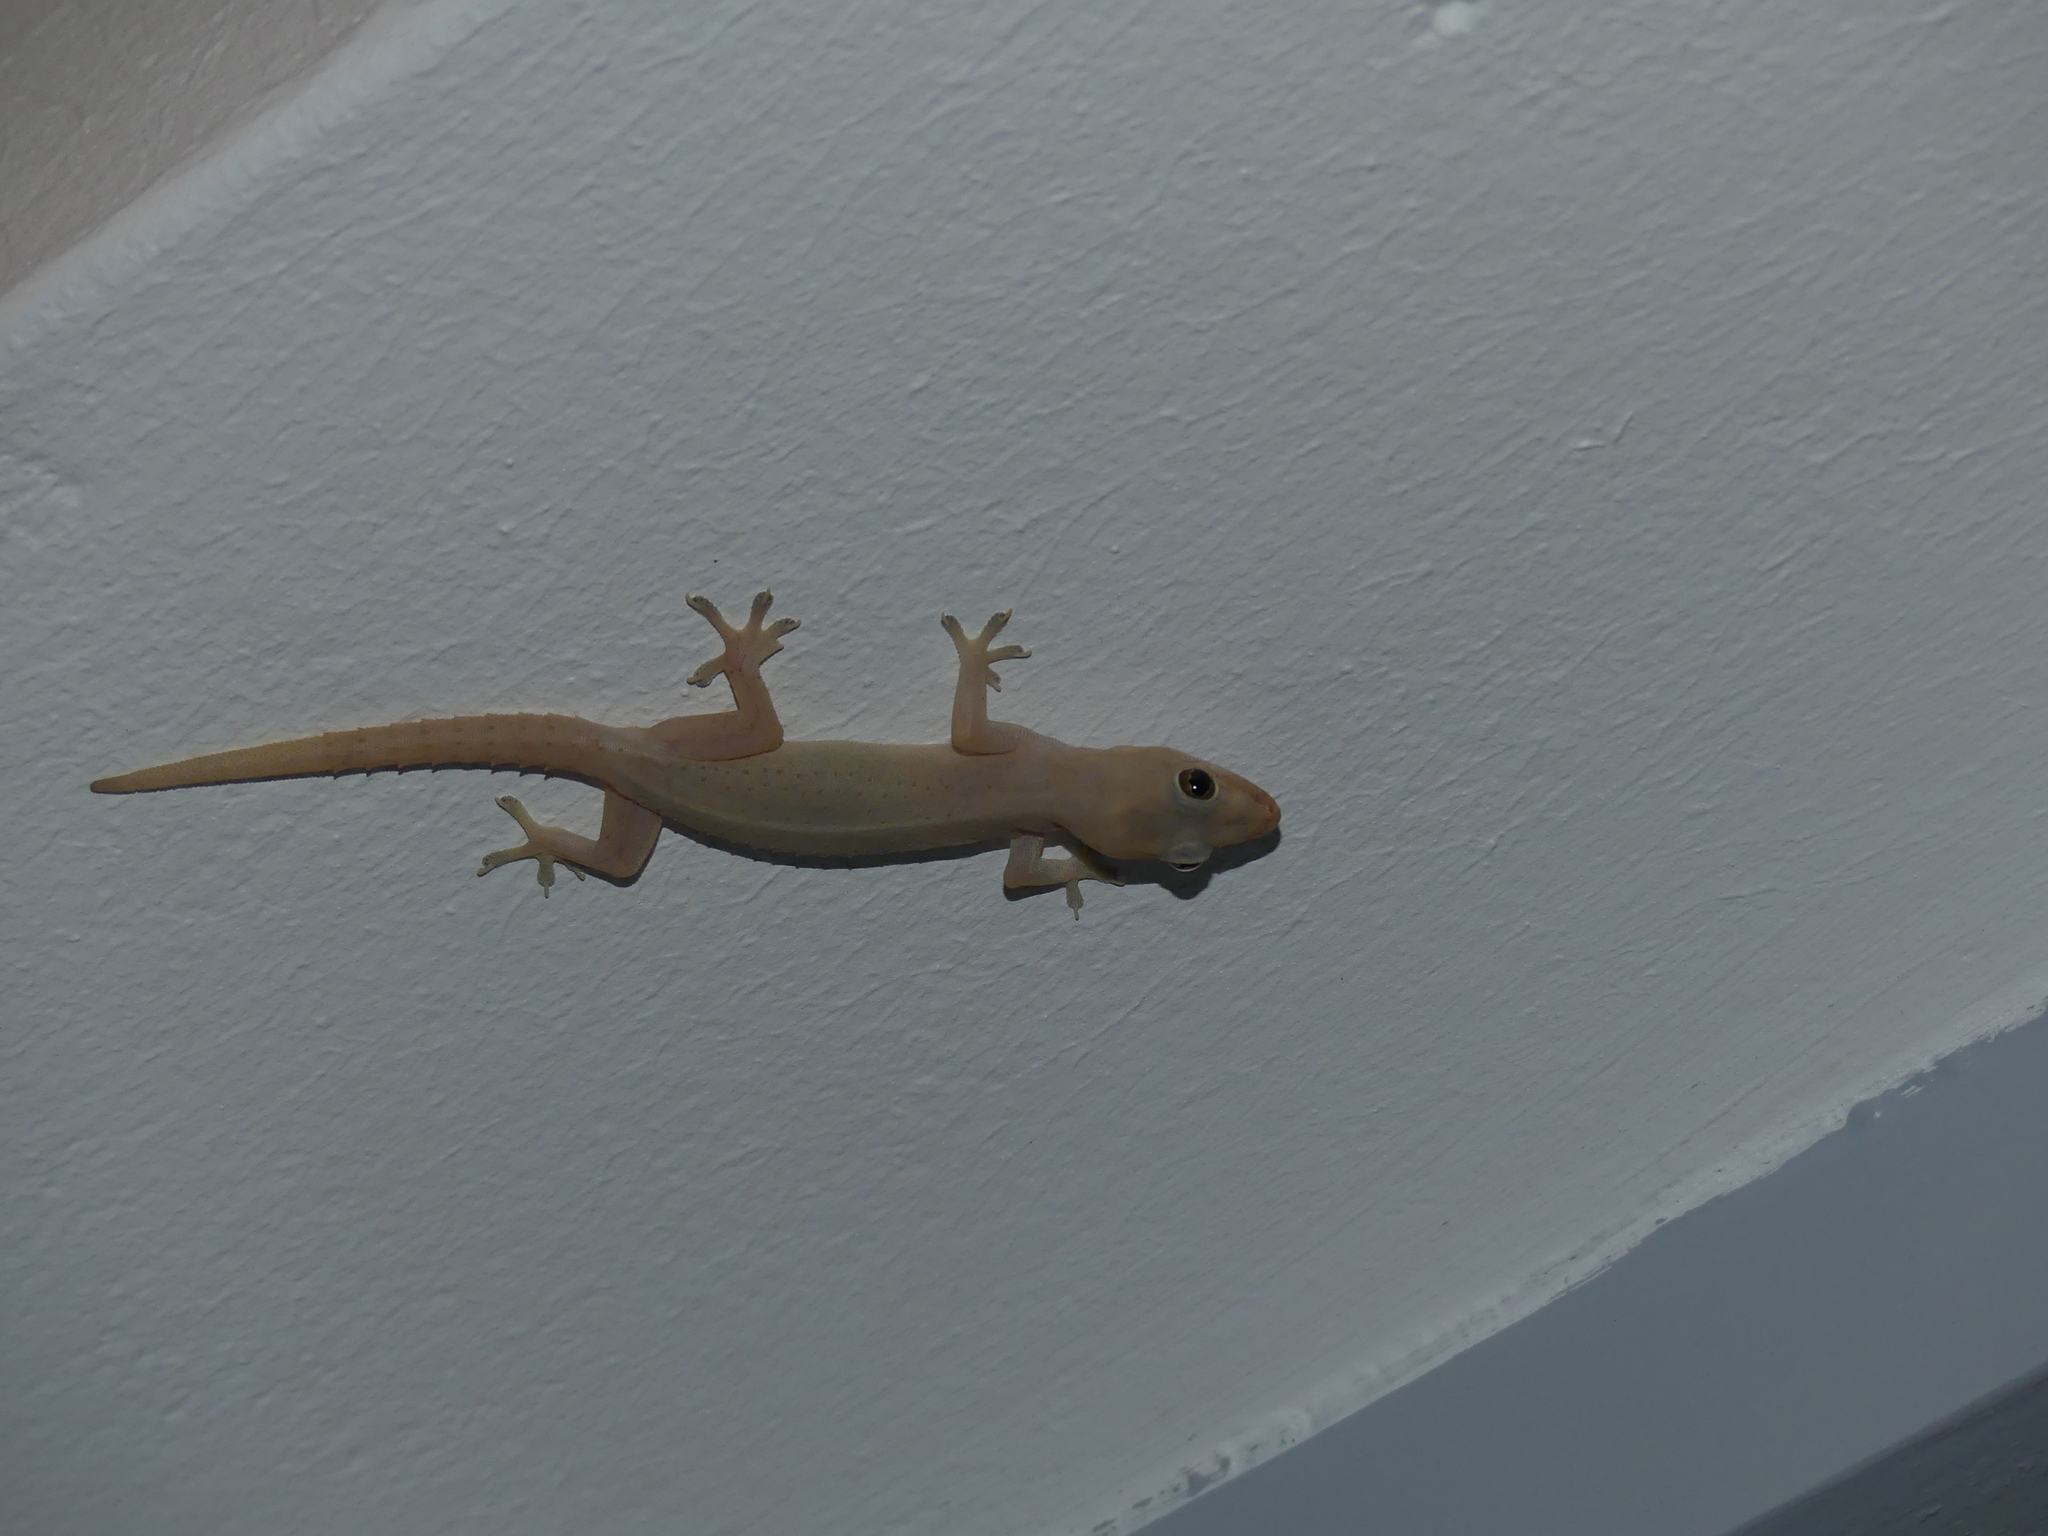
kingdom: Animalia
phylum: Chordata
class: Squamata
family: Gekkonidae
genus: Hemidactylus
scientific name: Hemidactylus frenatus
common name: Common house gecko
